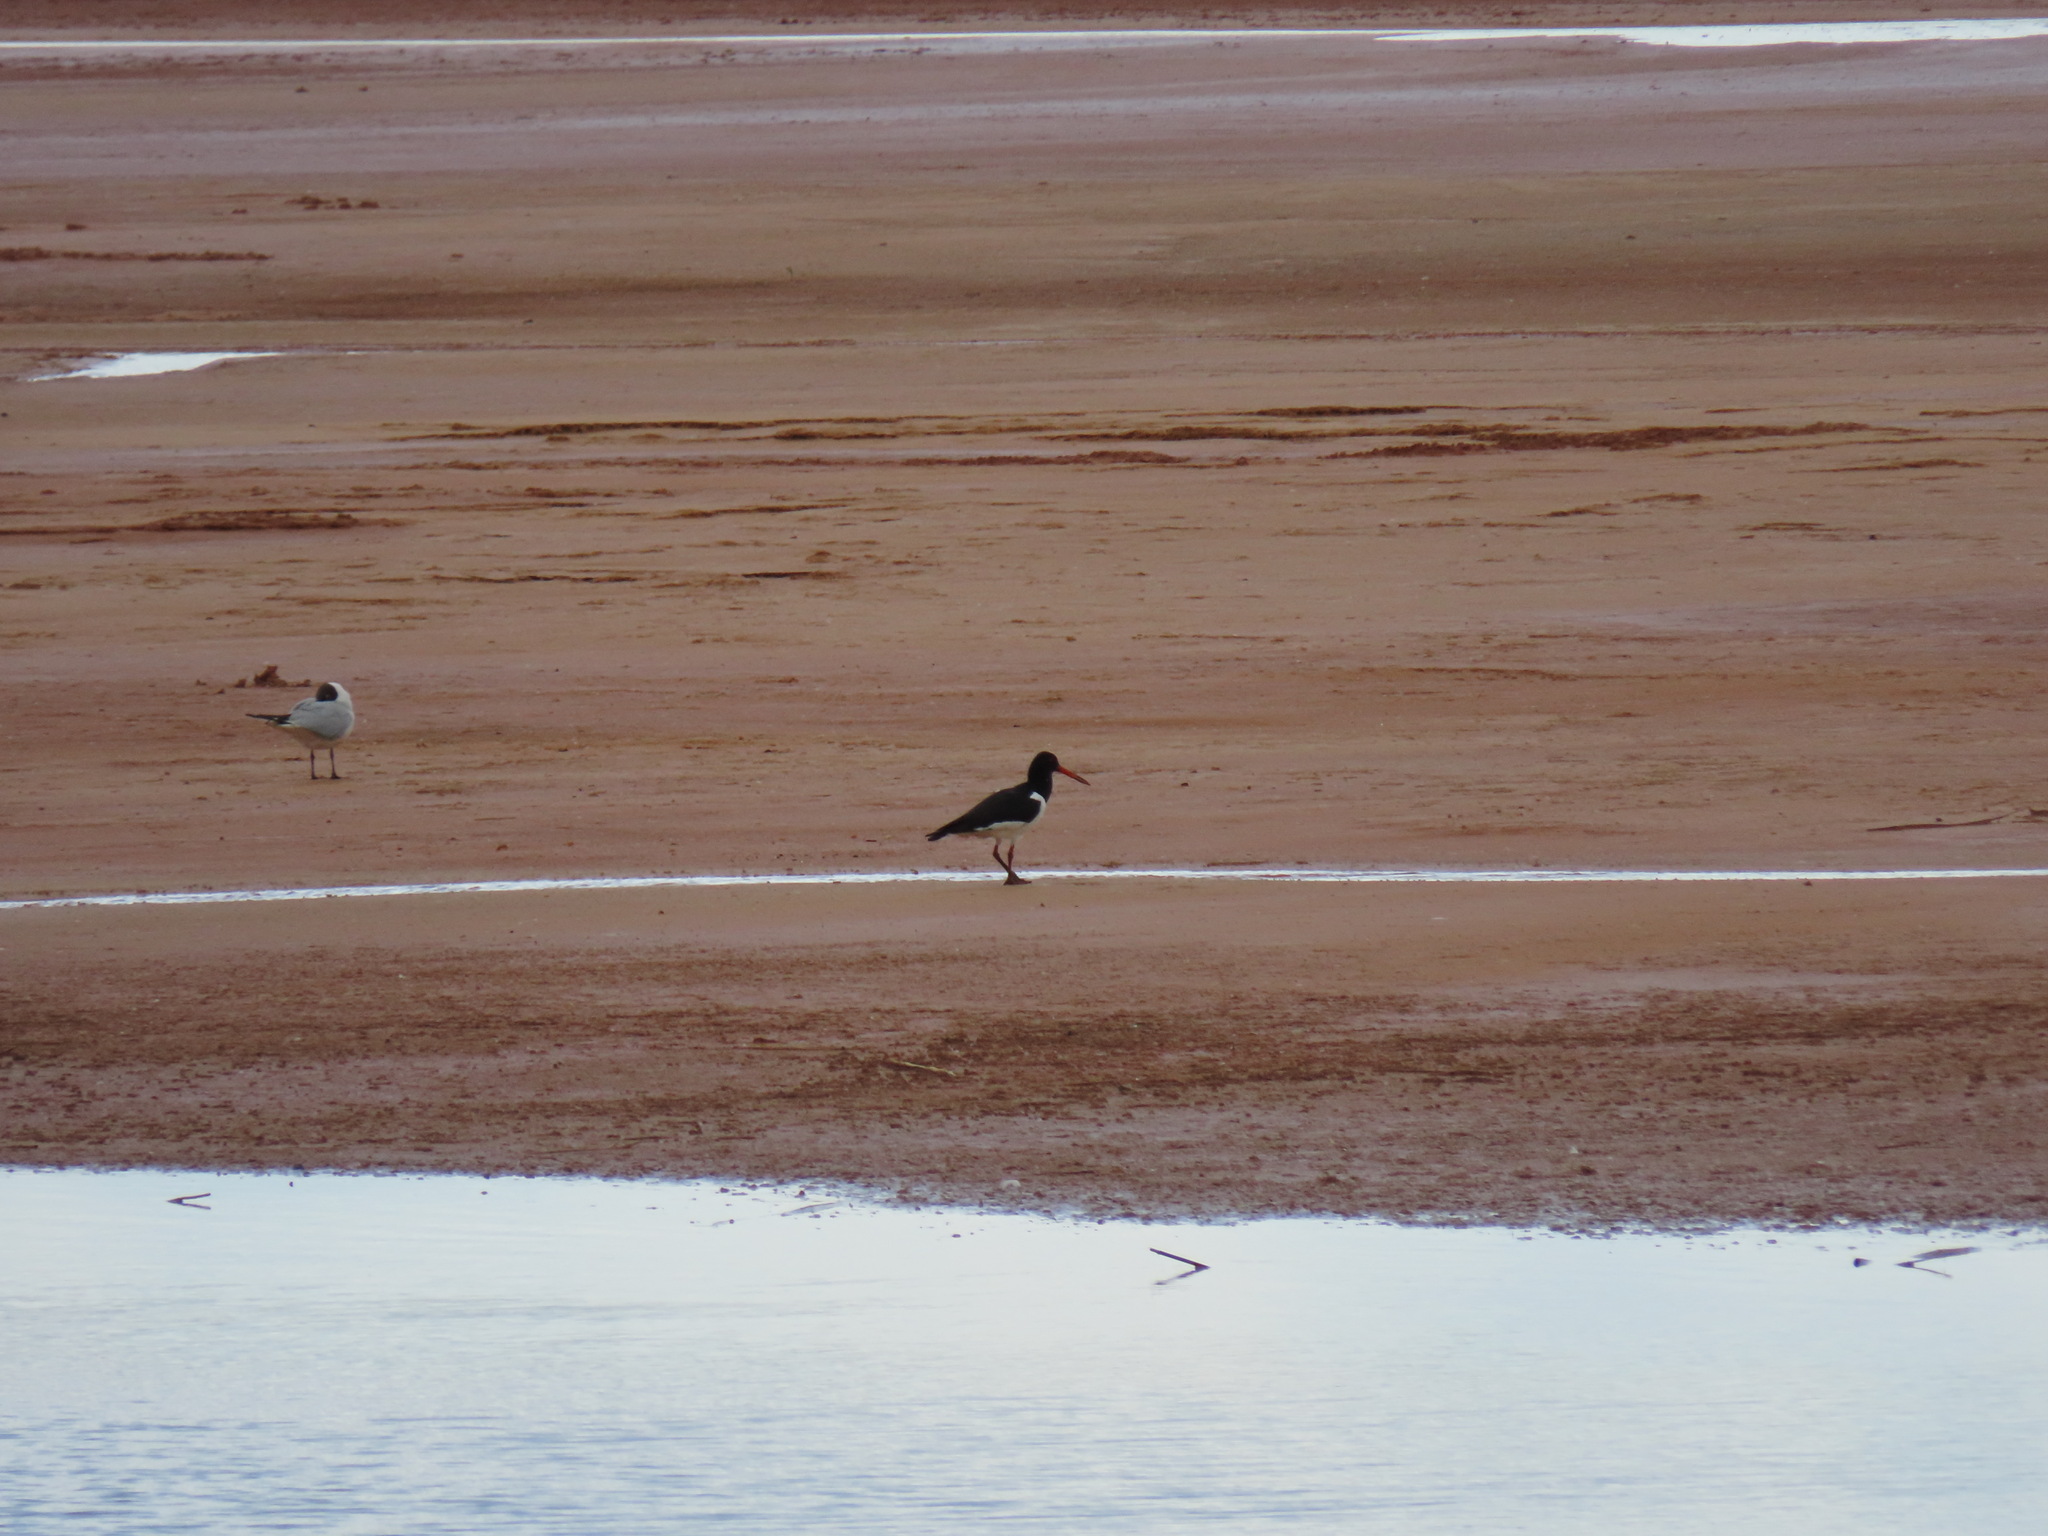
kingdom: Animalia
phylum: Chordata
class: Aves
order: Charadriiformes
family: Haematopodidae
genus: Haematopus
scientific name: Haematopus ostralegus
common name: Eurasian oystercatcher
